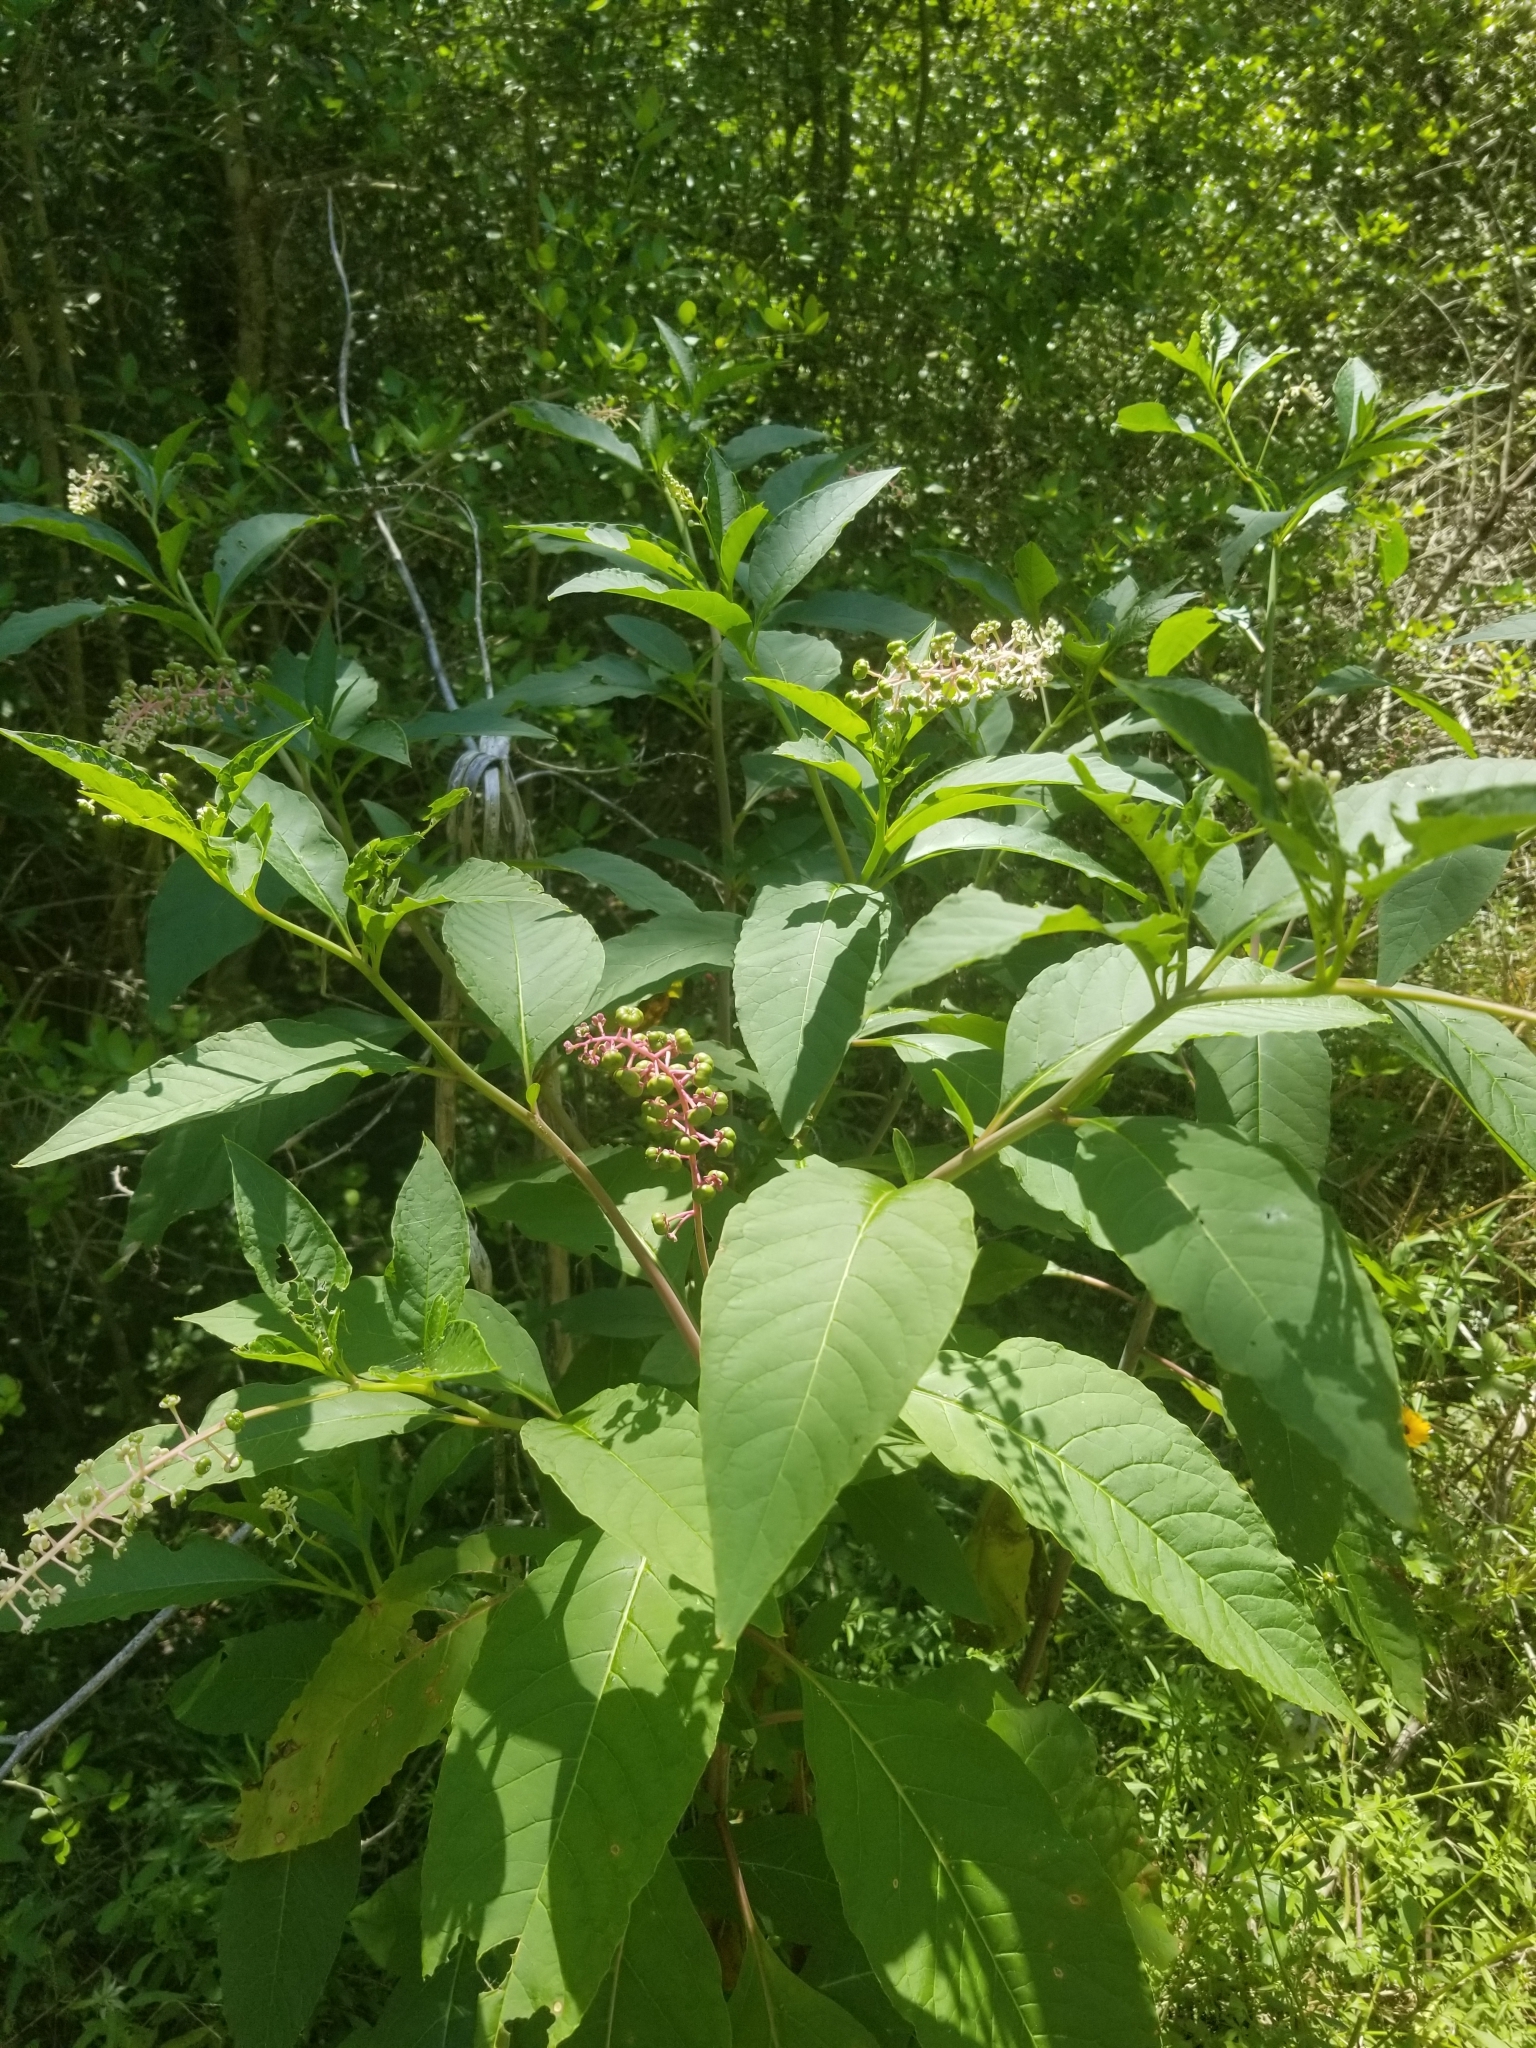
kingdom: Plantae
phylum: Tracheophyta
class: Magnoliopsida
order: Caryophyllales
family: Phytolaccaceae
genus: Phytolacca
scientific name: Phytolacca americana
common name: American pokeweed
